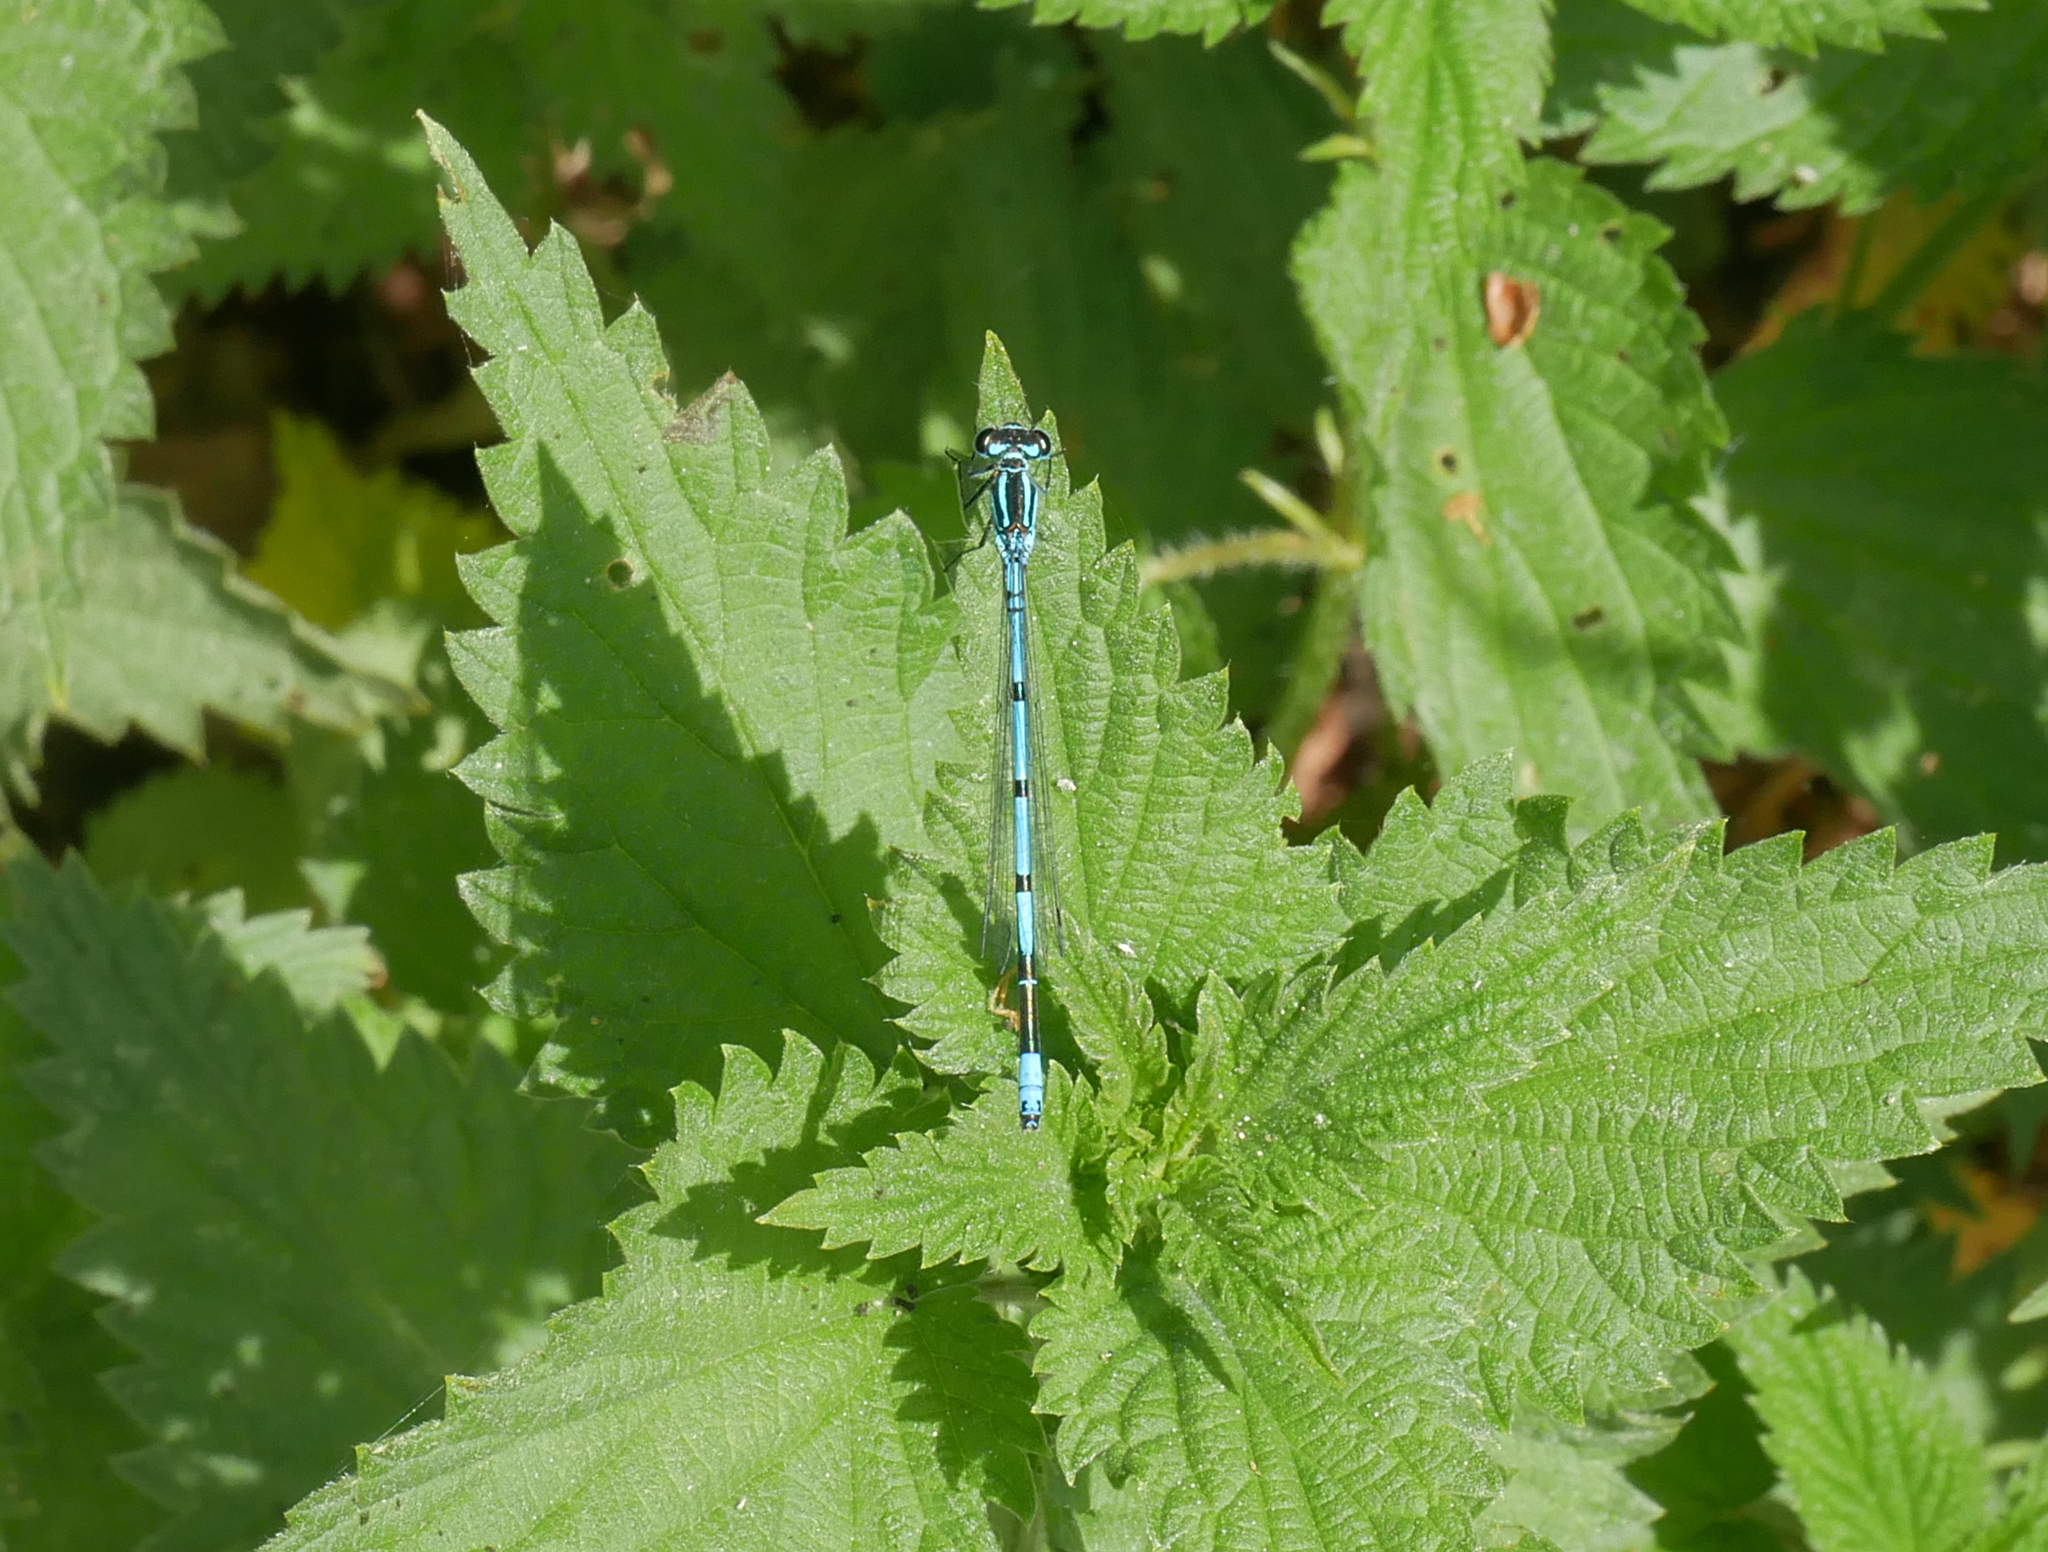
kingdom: Animalia
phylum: Arthropoda
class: Insecta
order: Odonata
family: Coenagrionidae
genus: Coenagrion
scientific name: Coenagrion puella
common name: Azure damselfly
